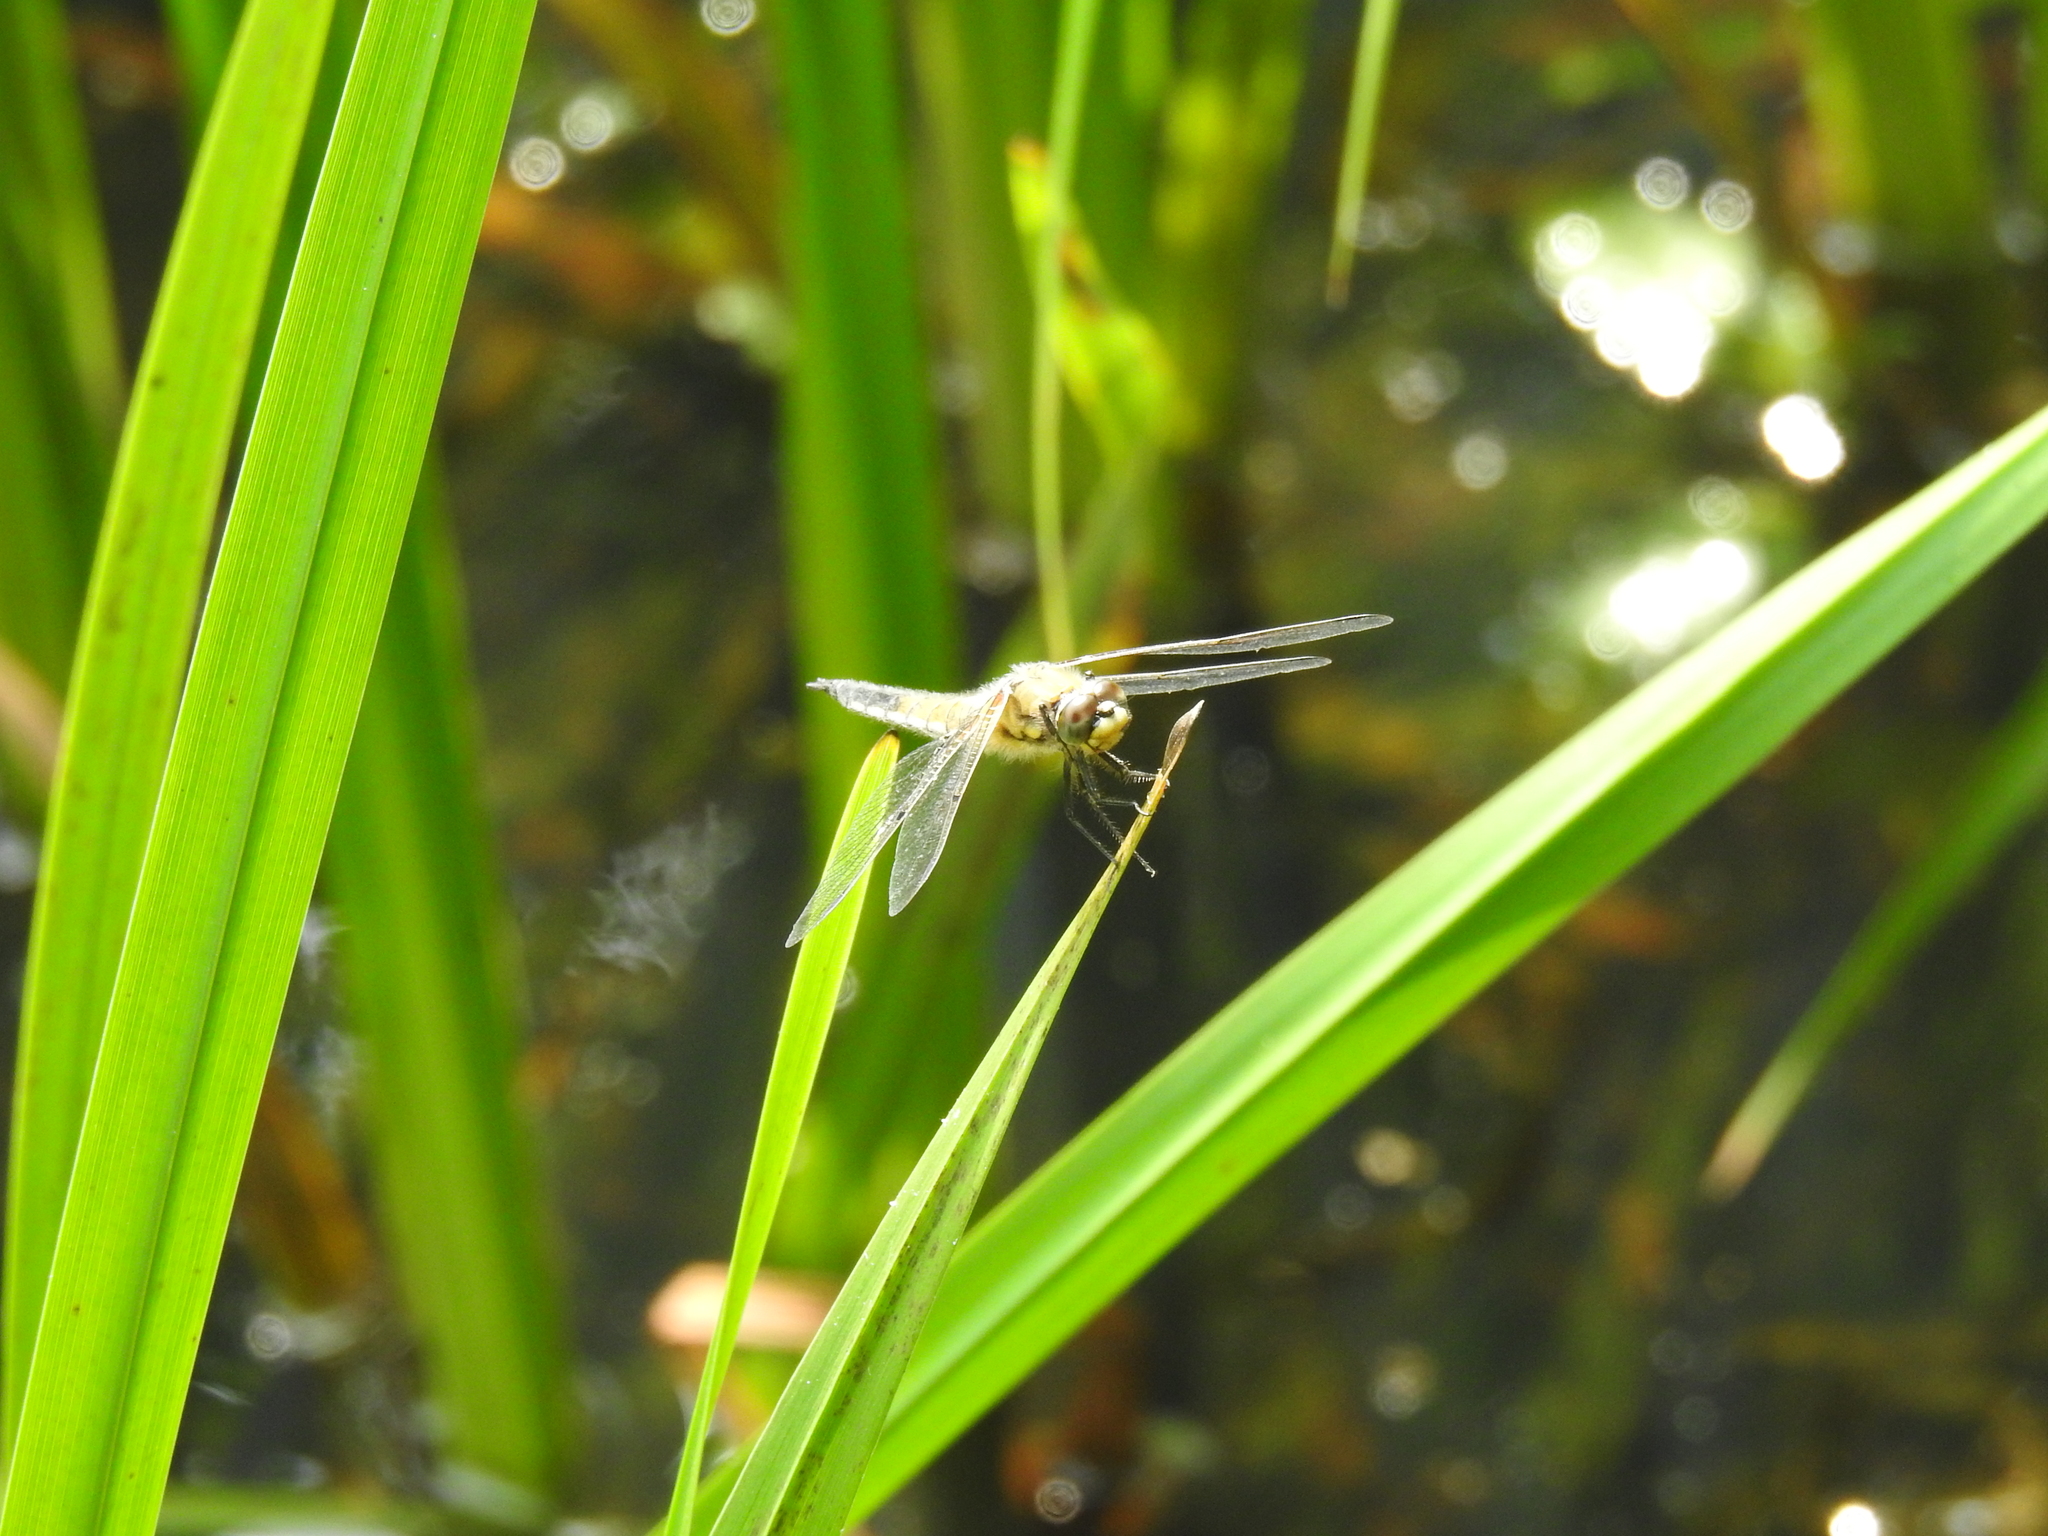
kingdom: Animalia
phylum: Arthropoda
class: Insecta
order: Odonata
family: Libellulidae
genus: Libellula
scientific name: Libellula quadrimaculata
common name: Four-spotted chaser
